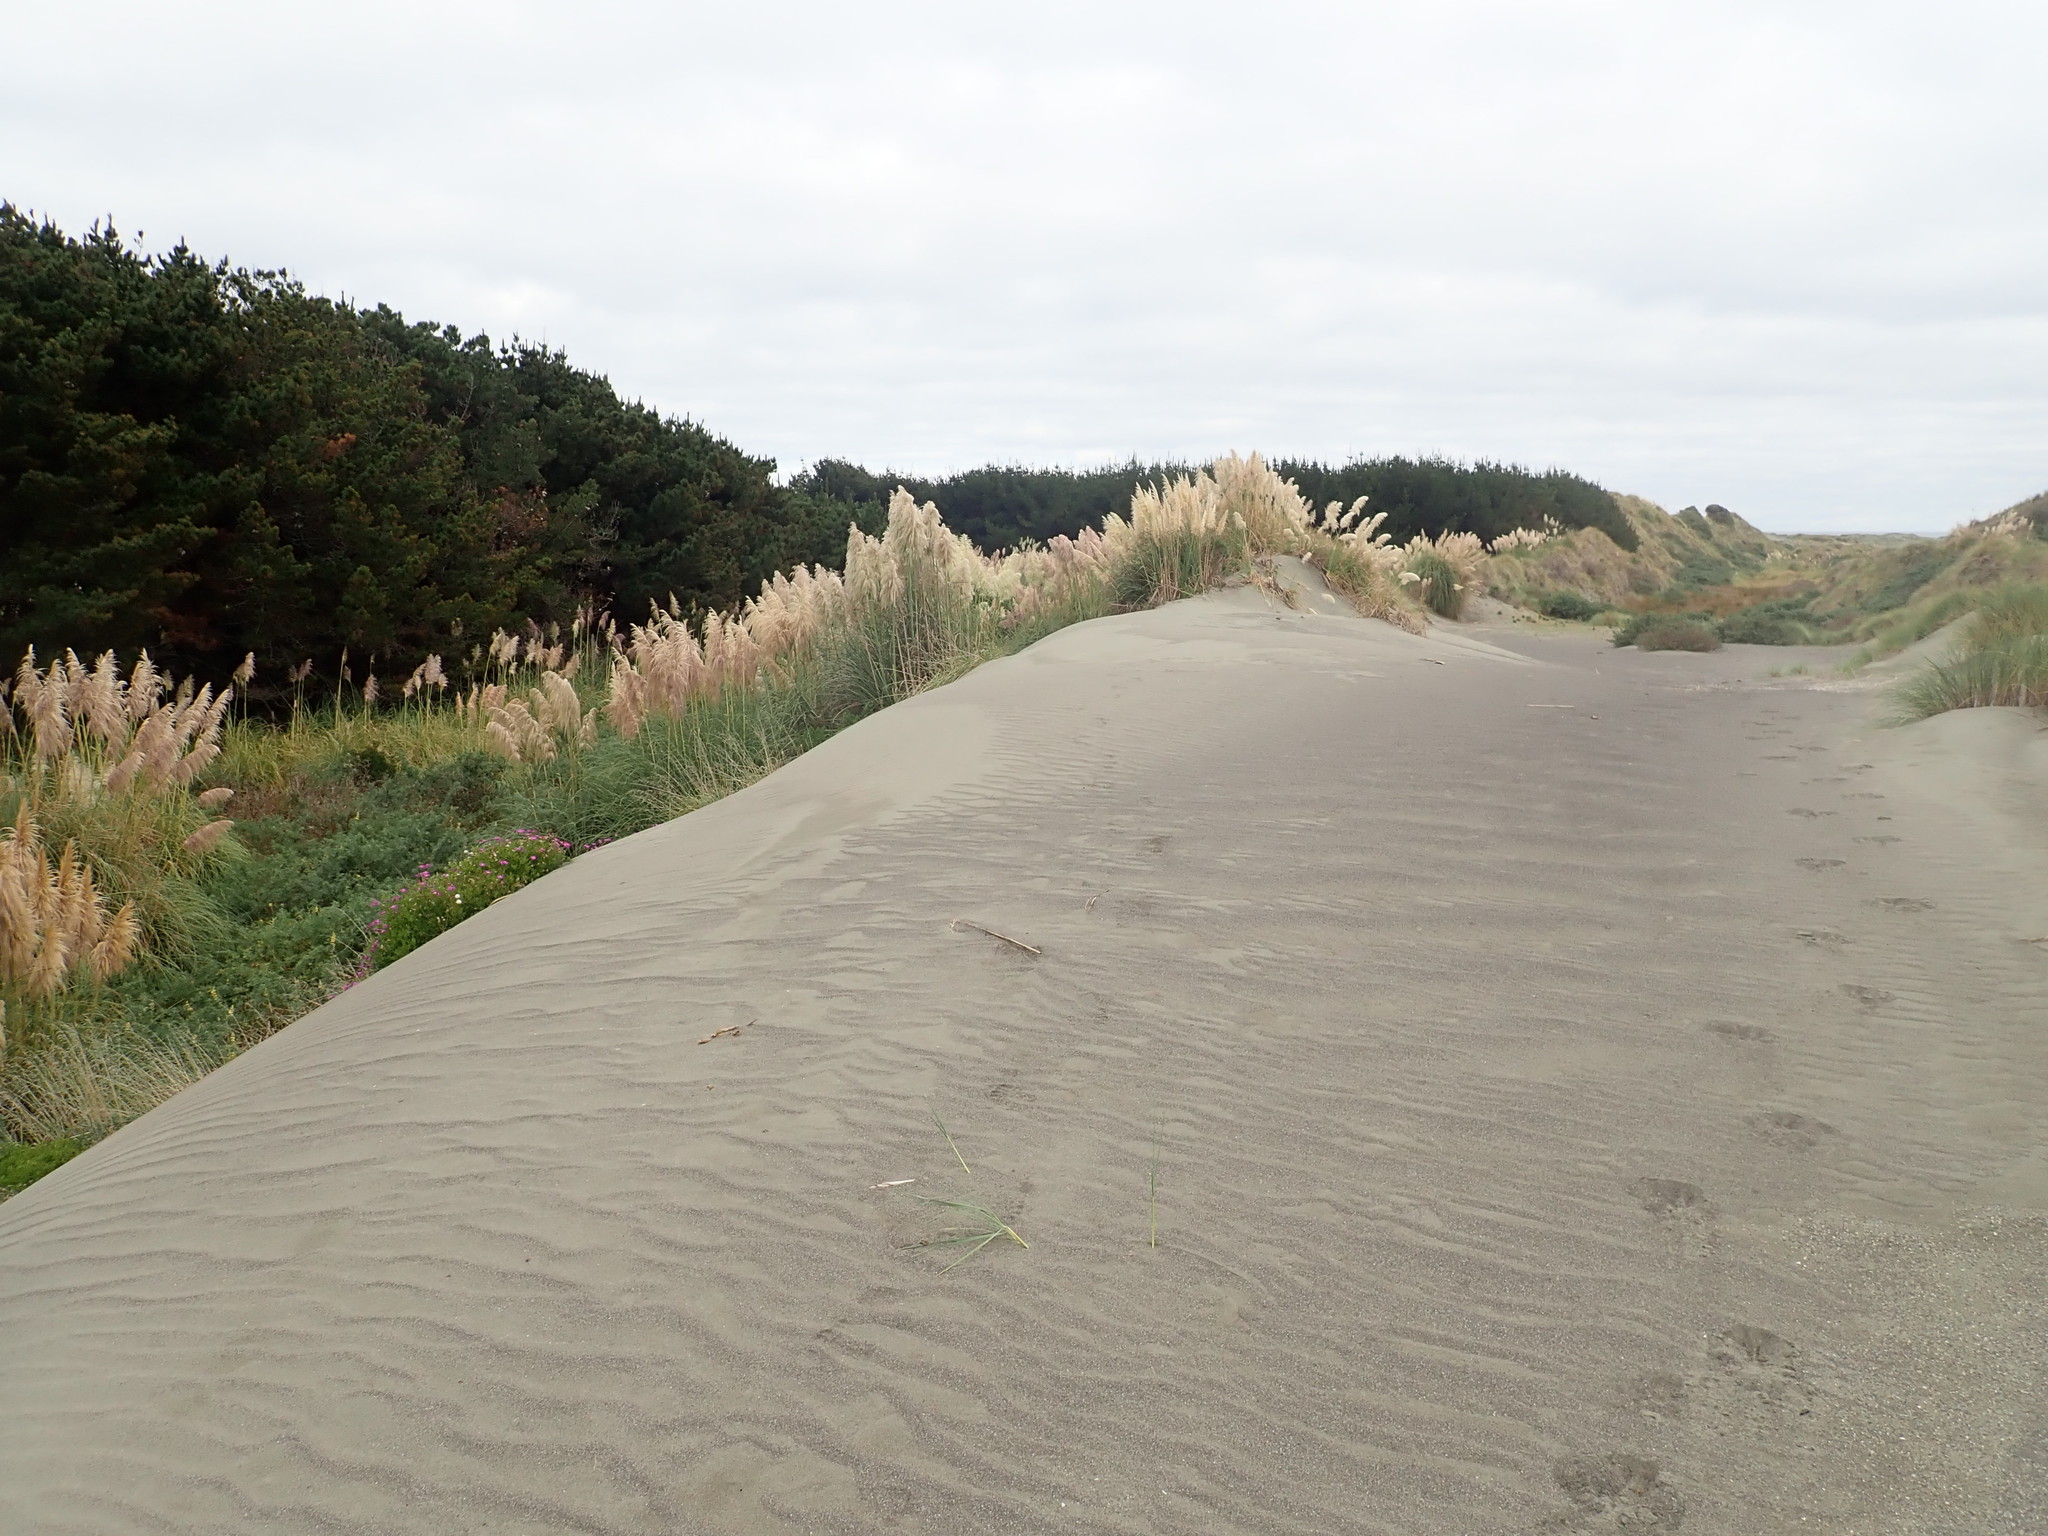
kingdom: Plantae
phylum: Tracheophyta
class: Liliopsida
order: Poales
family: Poaceae
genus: Cortaderia
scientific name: Cortaderia selloana
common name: Uruguayan pampas grass
